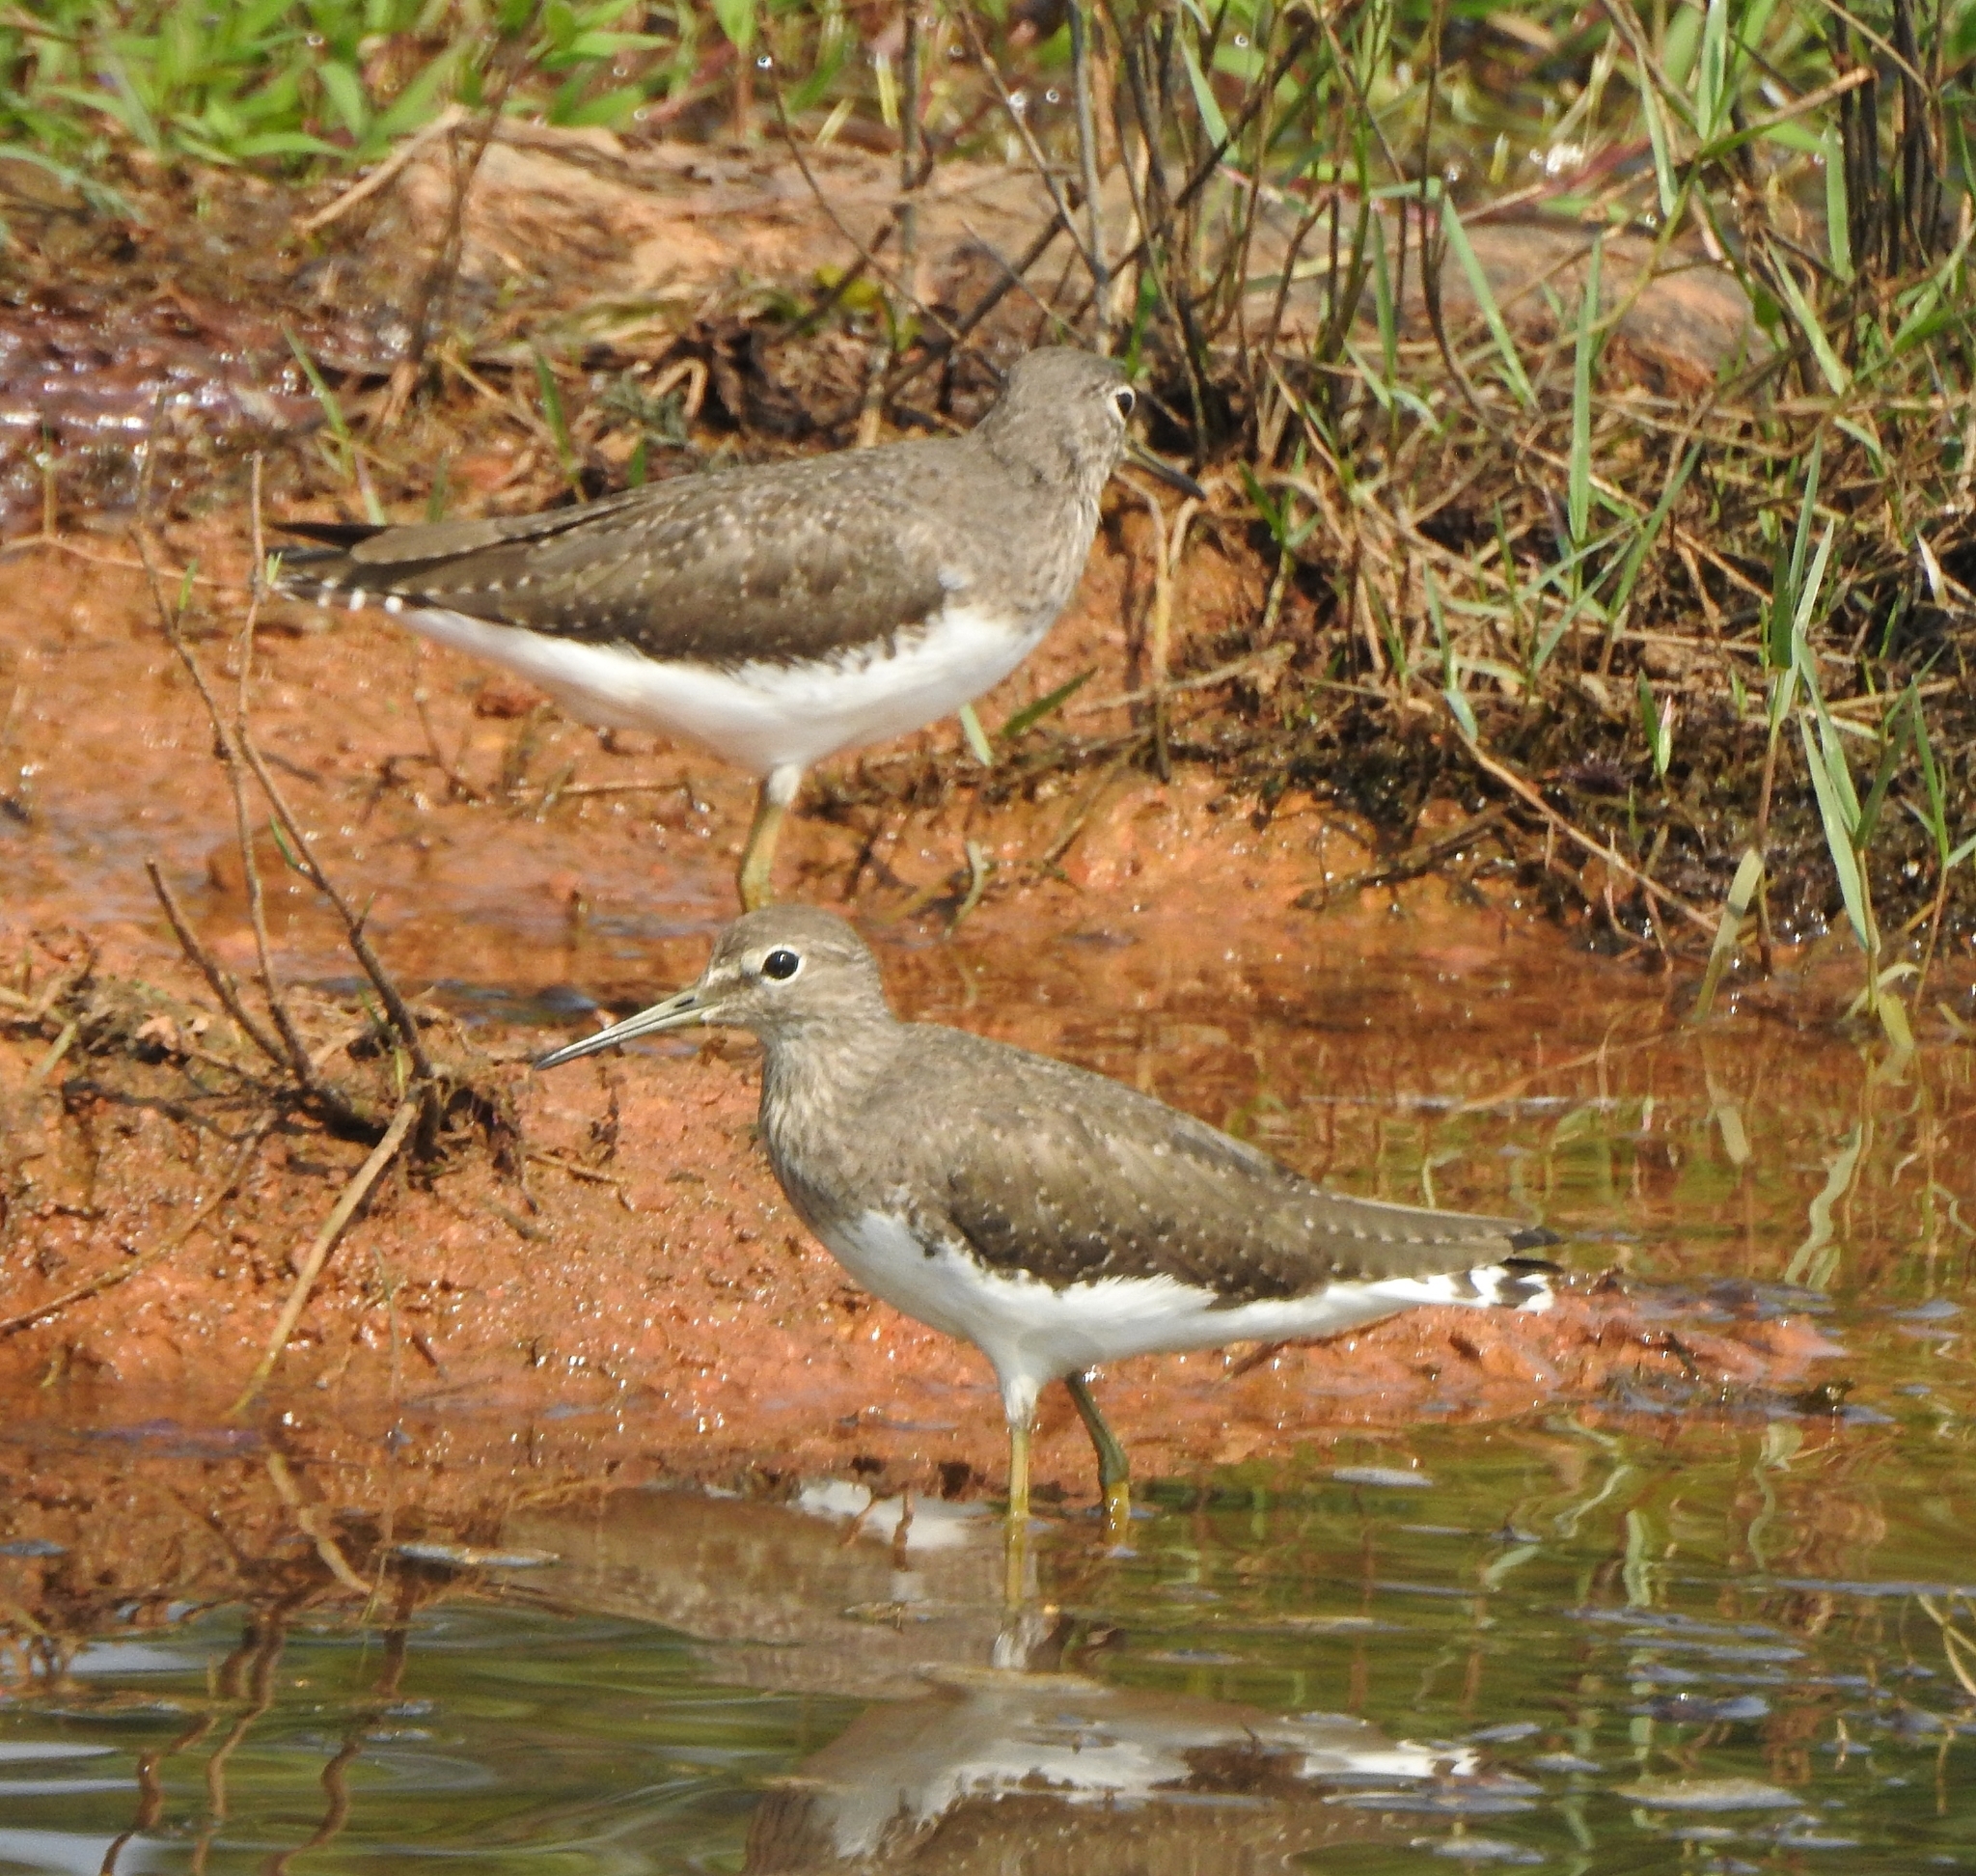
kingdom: Animalia
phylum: Chordata
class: Aves
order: Charadriiformes
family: Scolopacidae
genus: Tringa
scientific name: Tringa ochropus
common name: Green sandpiper
